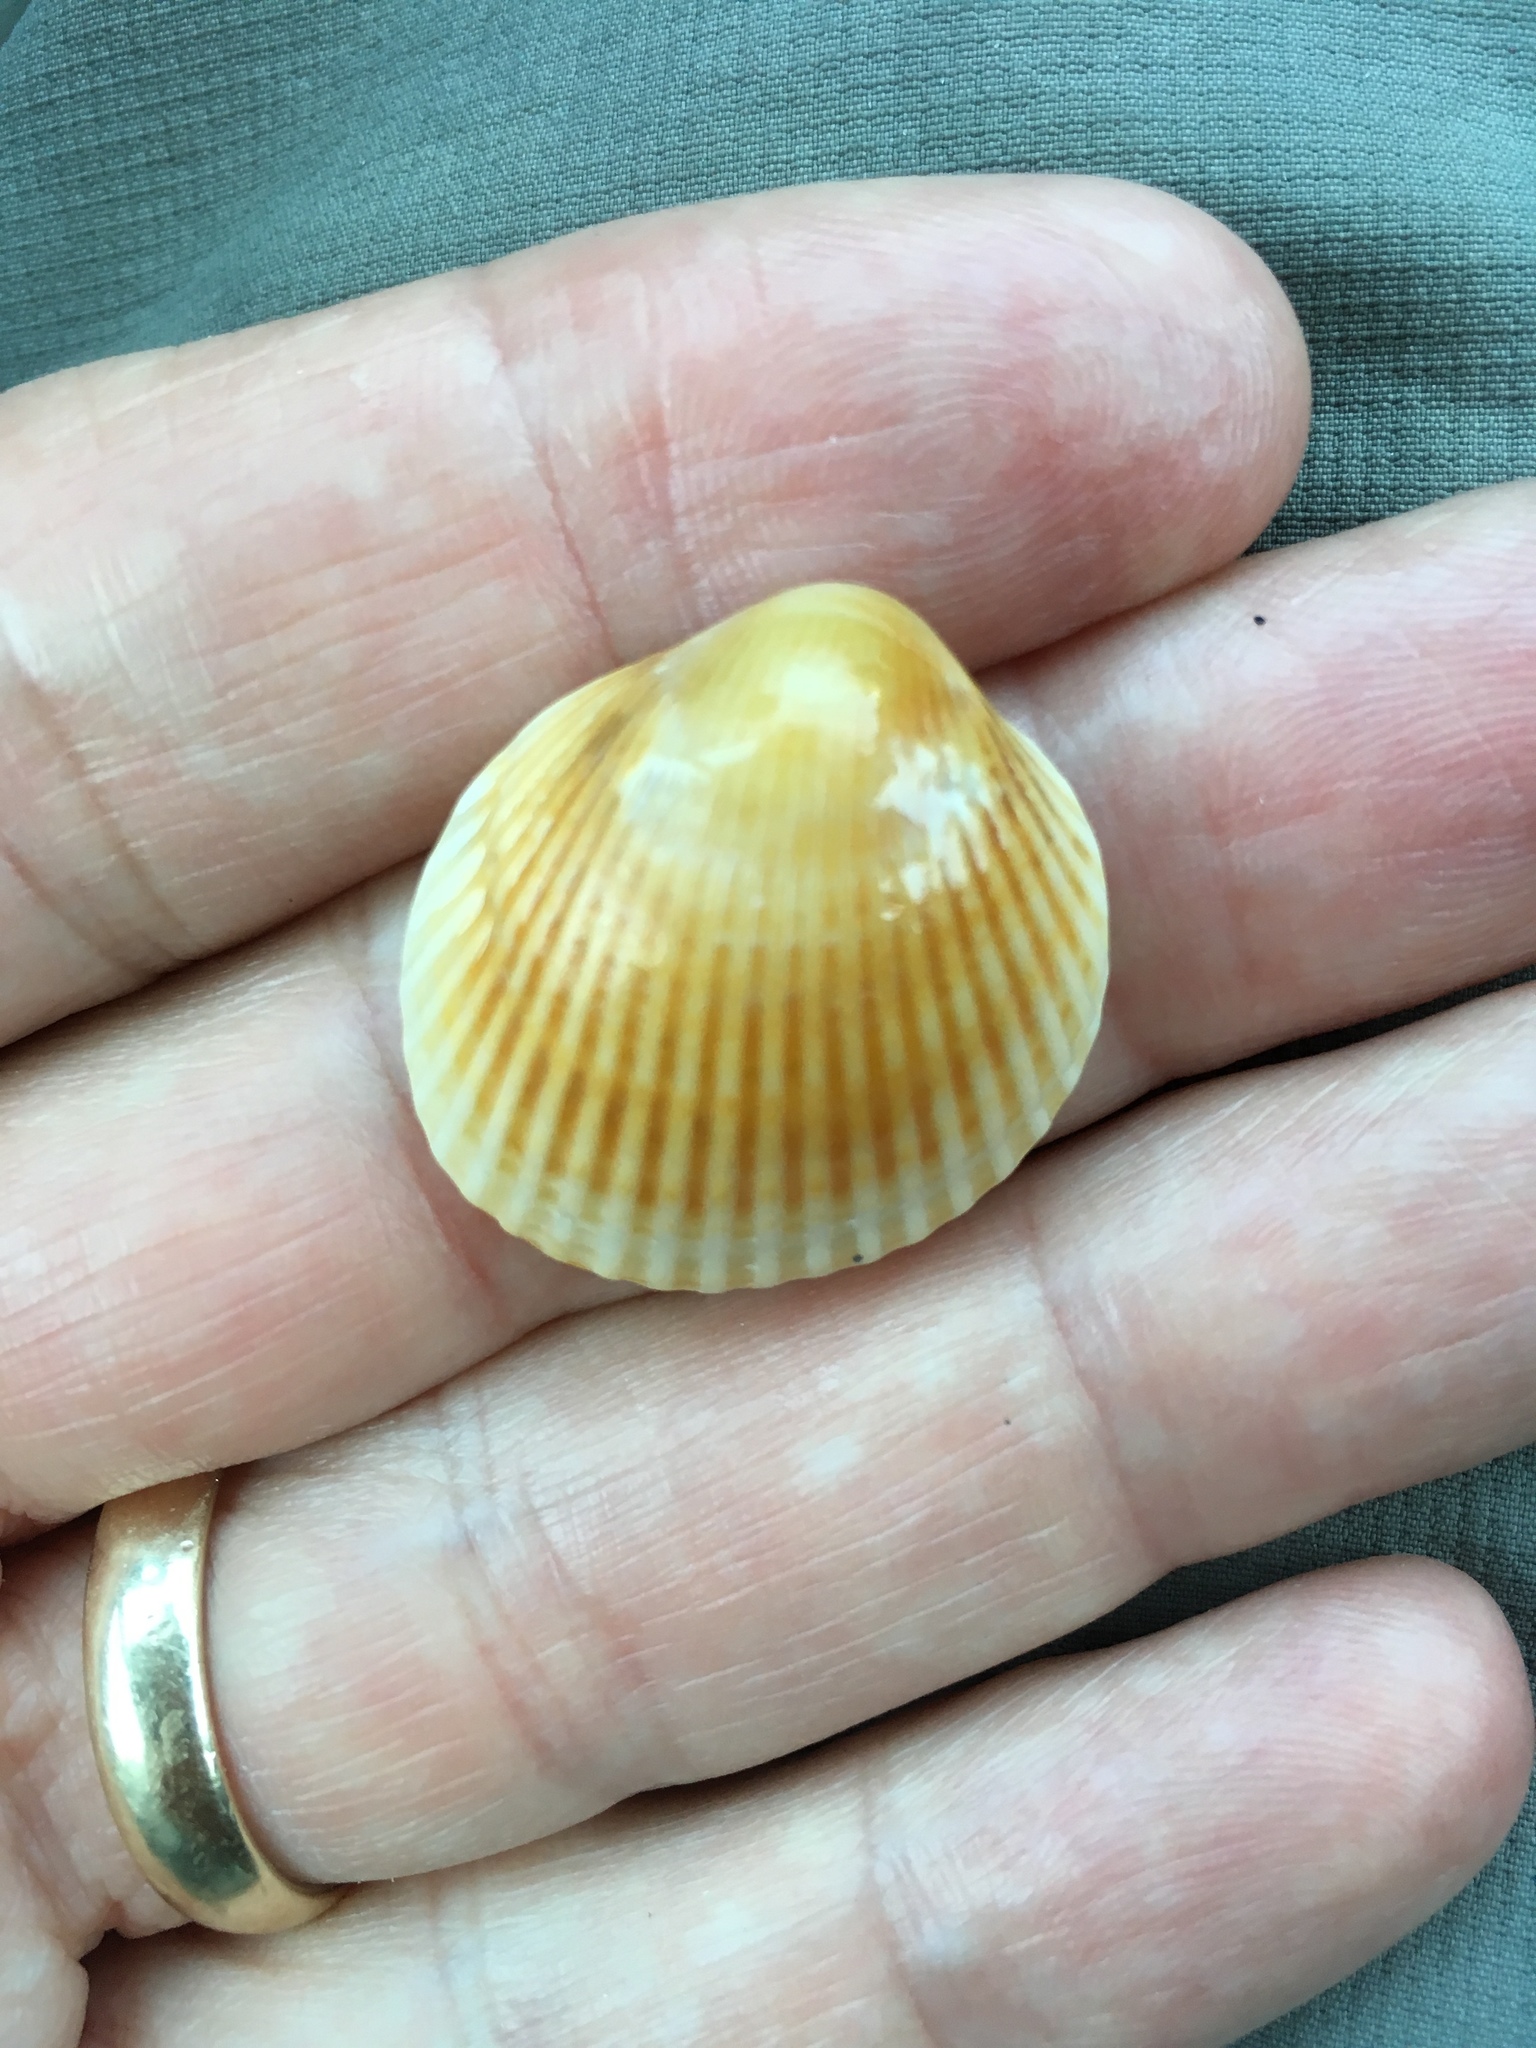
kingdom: Animalia
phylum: Mollusca
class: Bivalvia
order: Arcida
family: Arcidae
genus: Lunarca
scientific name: Lunarca ovalis
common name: Blood ark
